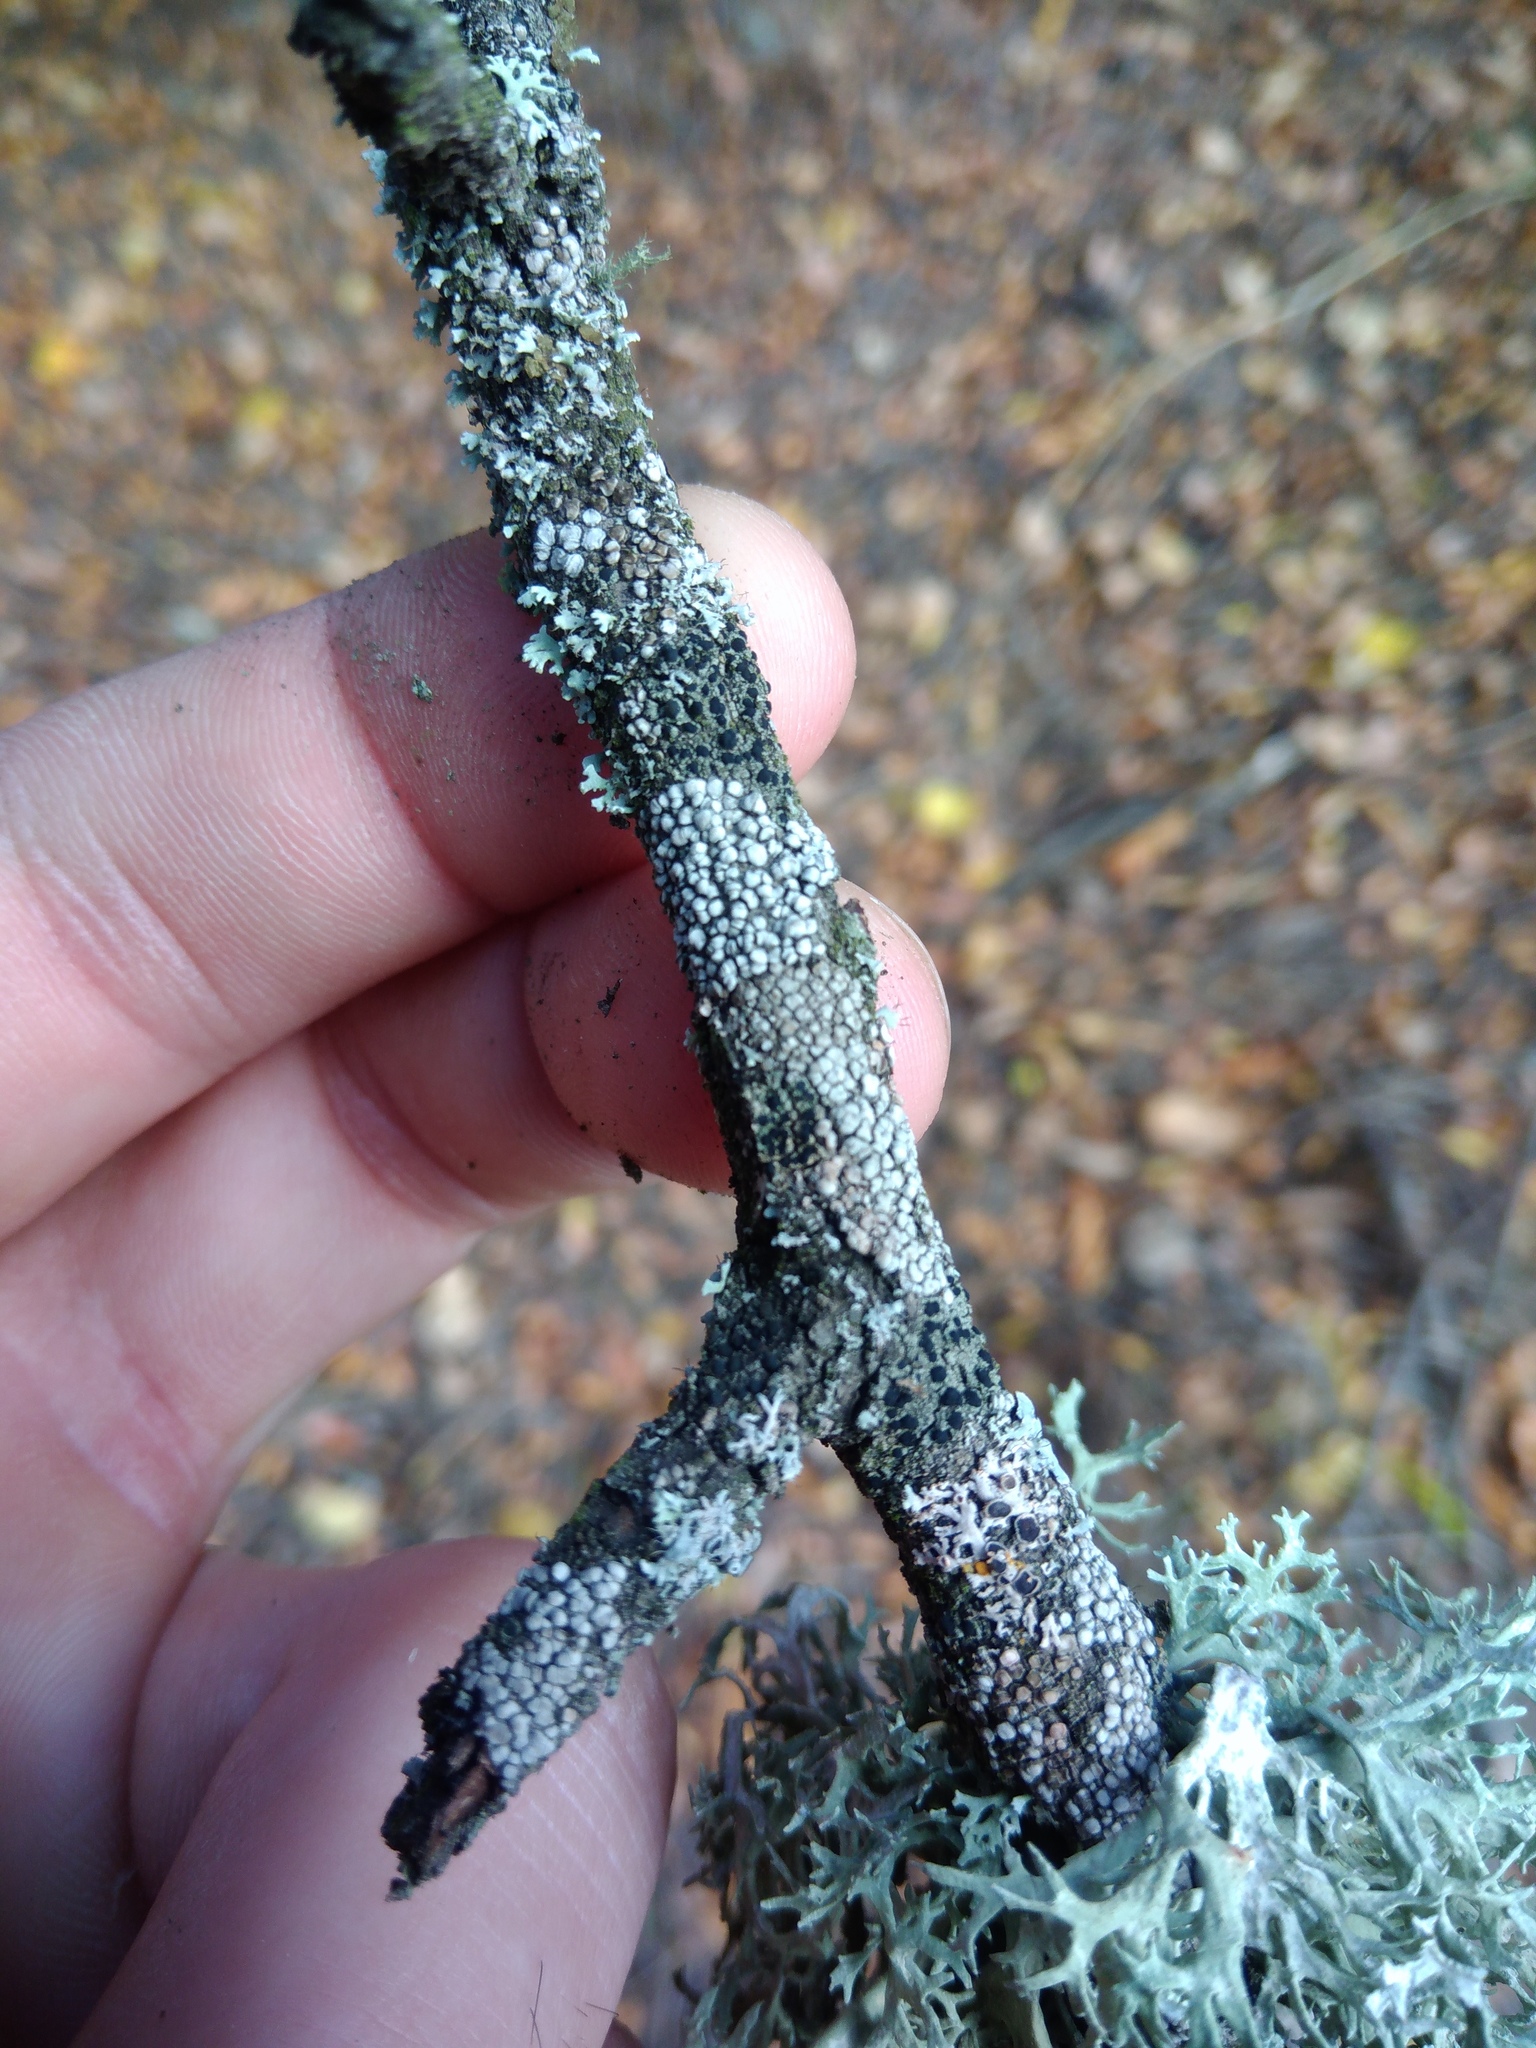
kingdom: Fungi
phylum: Ascomycota
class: Lecanoromycetes
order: Lecanorales
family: Lecanoraceae
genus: Glaucomaria
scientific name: Glaucomaria carpinea
